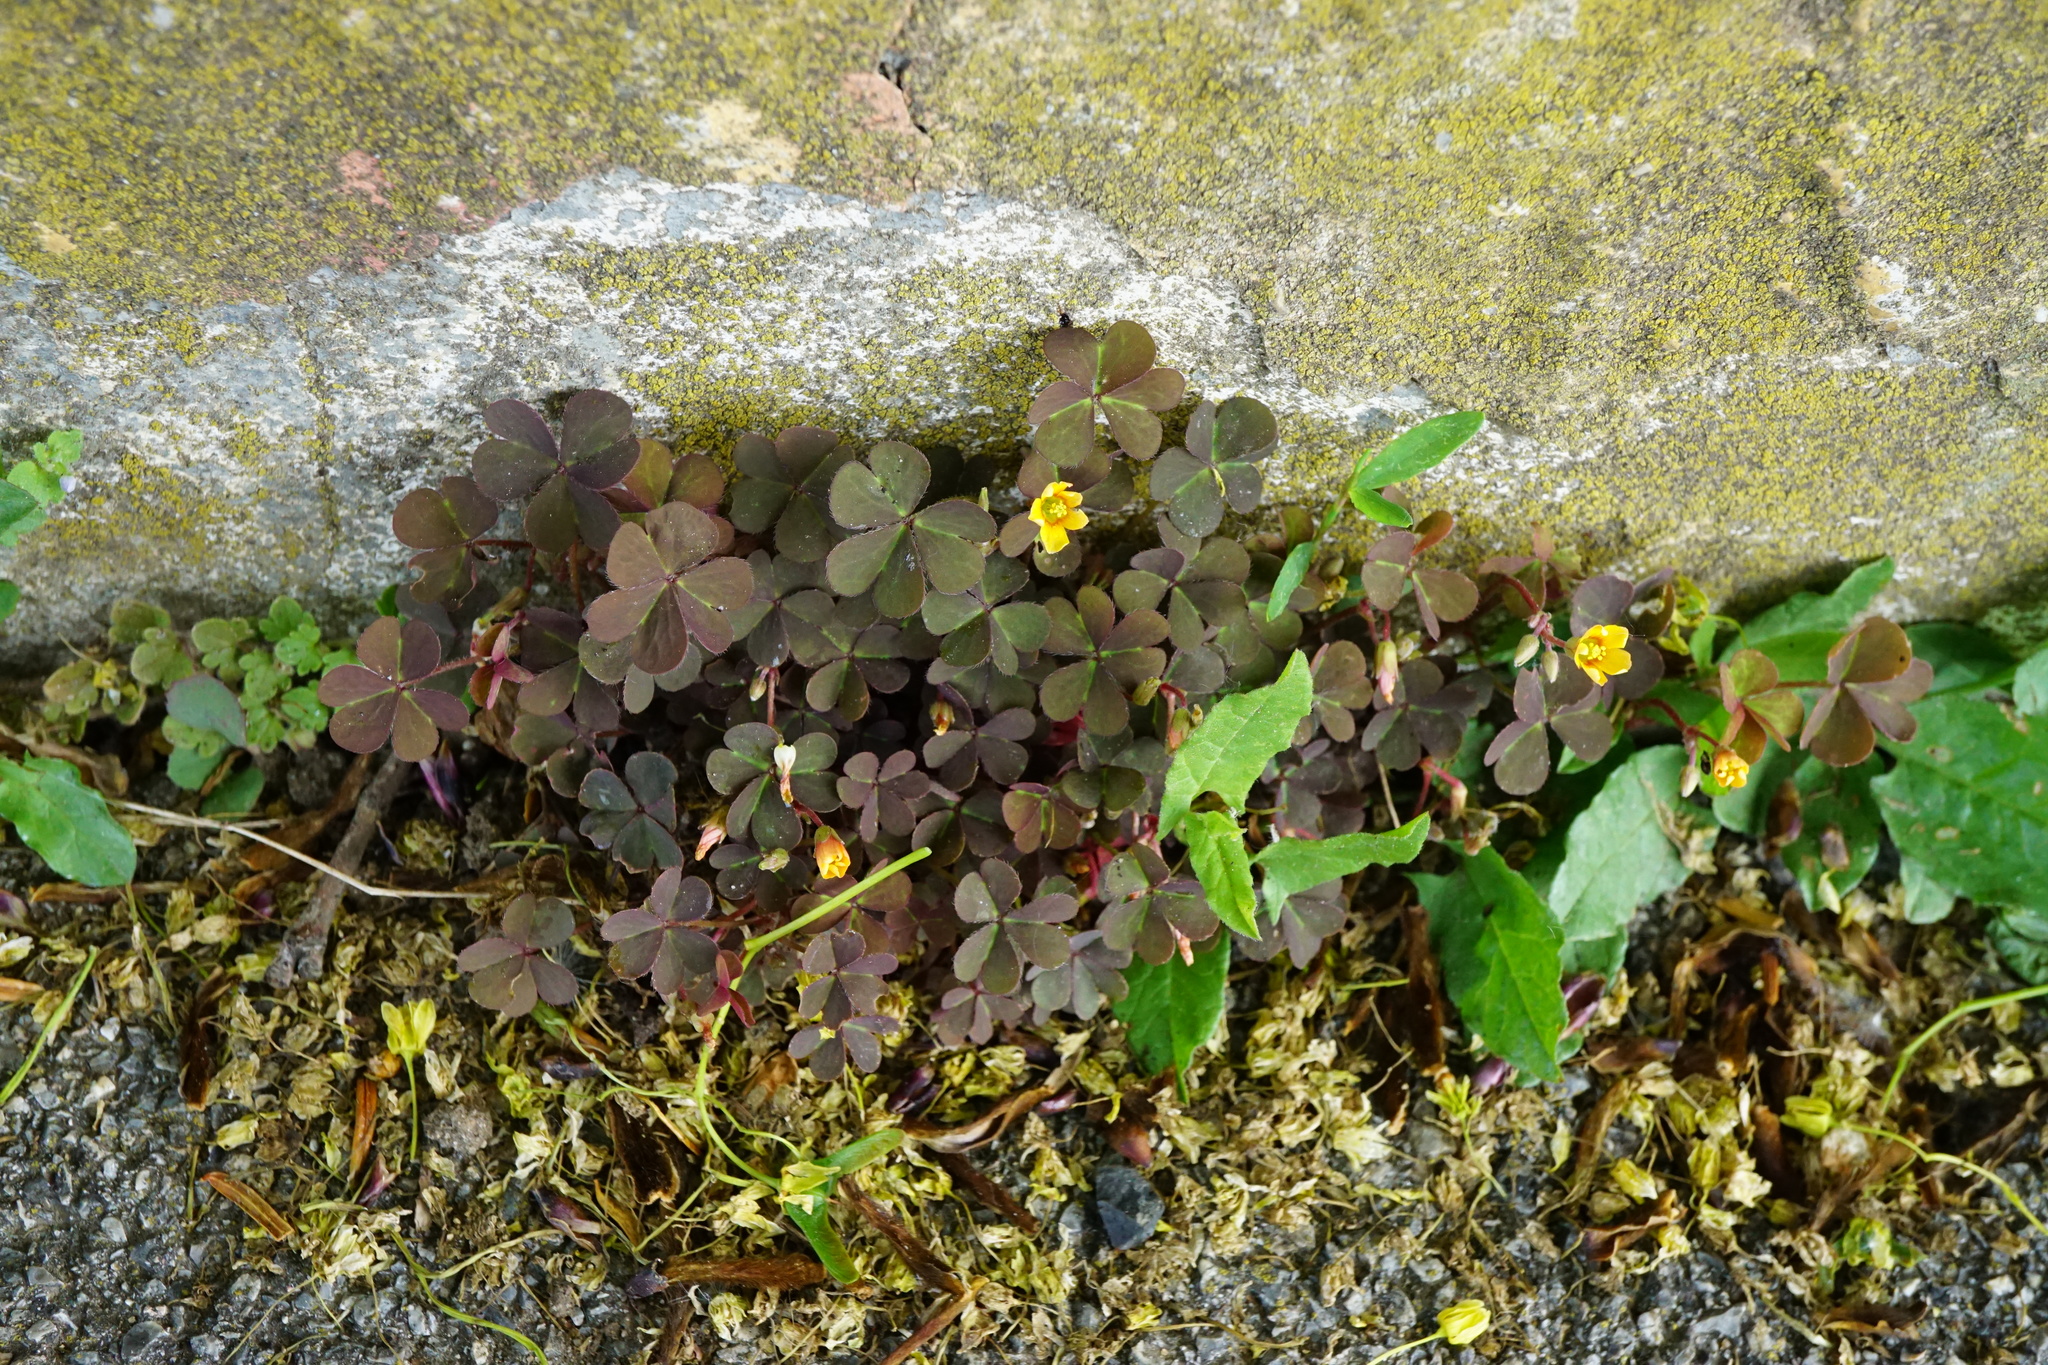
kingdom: Plantae
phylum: Tracheophyta
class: Magnoliopsida
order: Oxalidales
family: Oxalidaceae
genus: Oxalis
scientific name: Oxalis corniculata
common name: Procumbent yellow-sorrel
